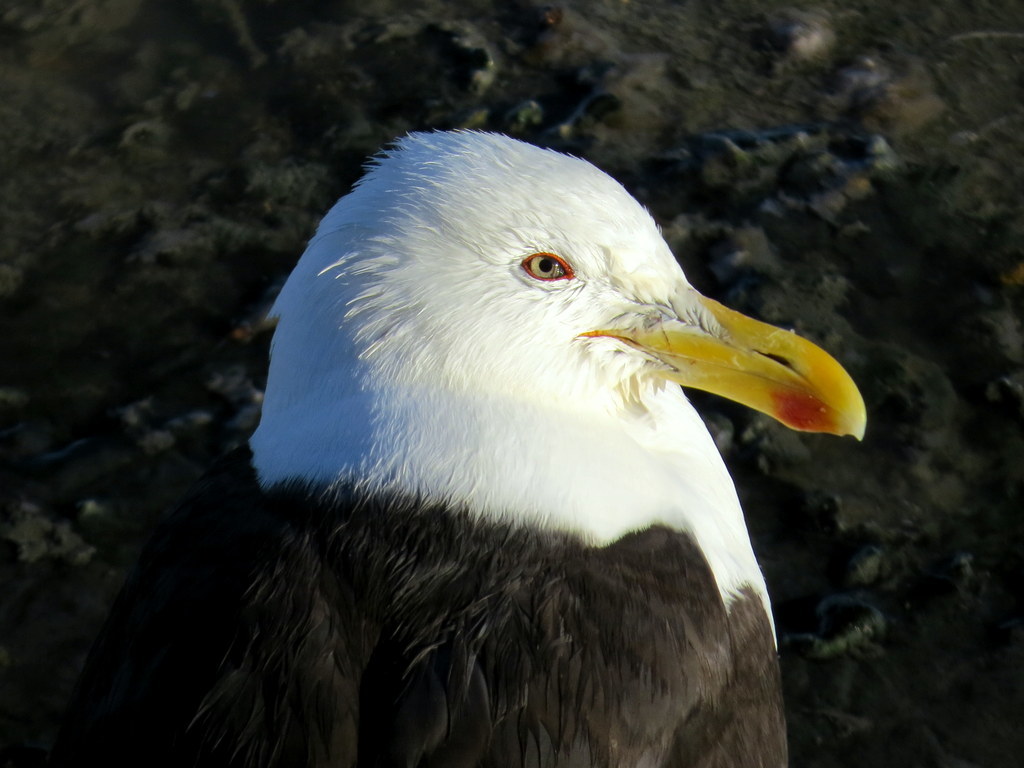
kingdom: Animalia
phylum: Chordata
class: Aves
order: Charadriiformes
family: Laridae
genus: Larus
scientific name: Larus dominicanus
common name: Kelp gull
